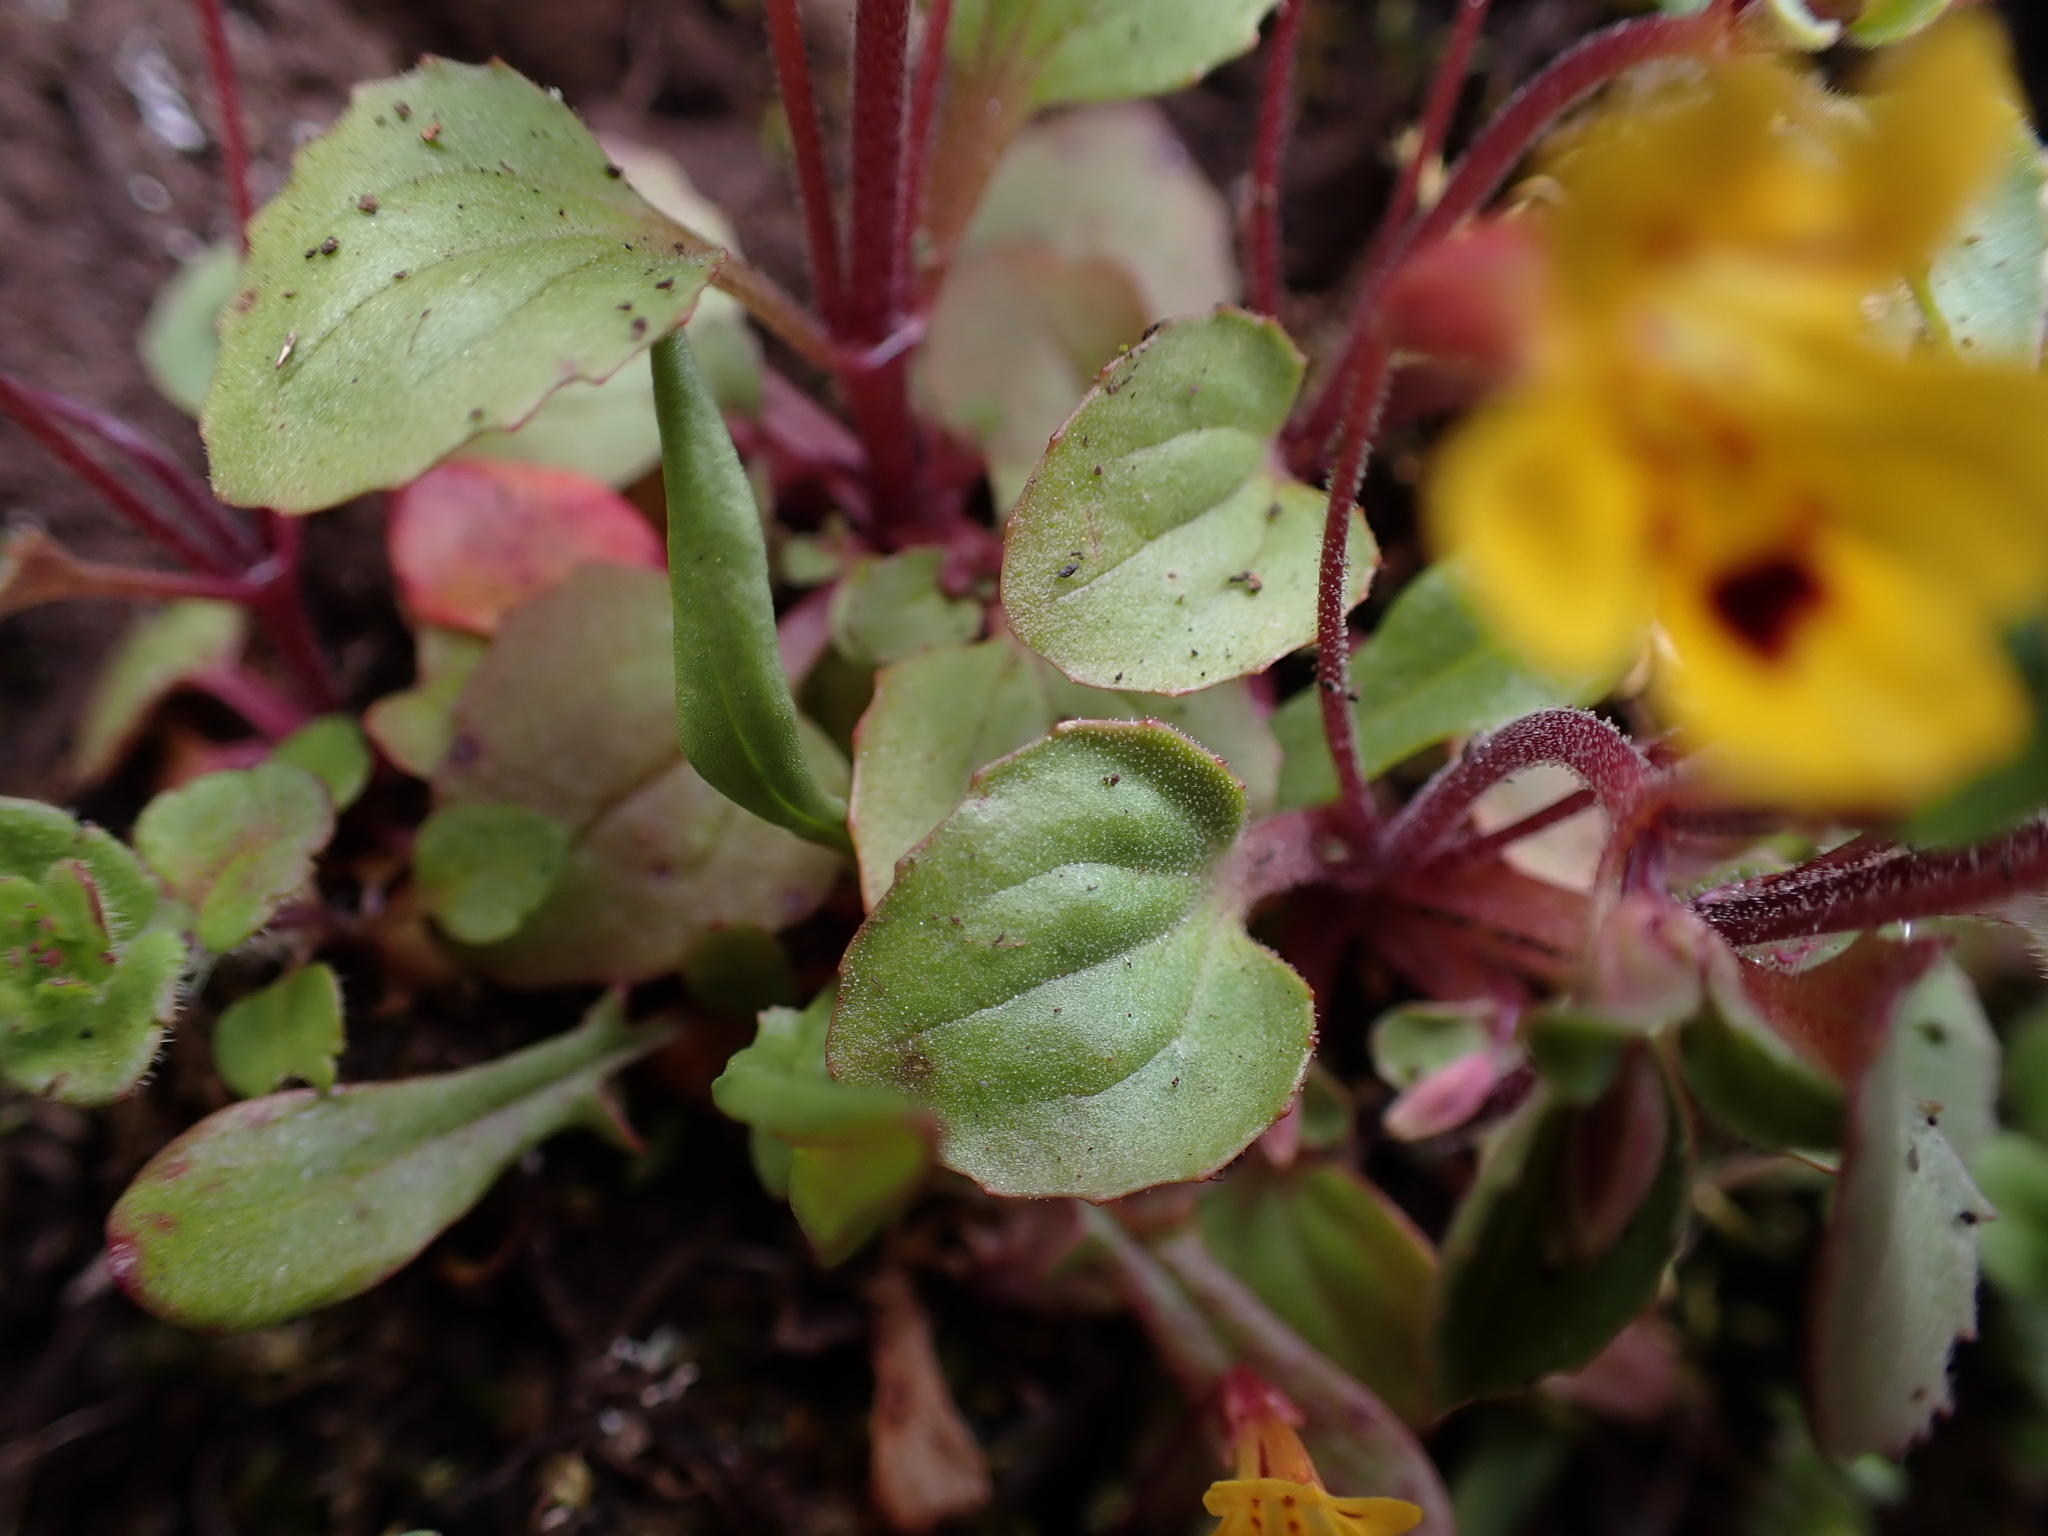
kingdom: Plantae
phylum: Tracheophyta
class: Magnoliopsida
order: Lamiales
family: Phrymaceae
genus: Erythranthe
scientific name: Erythranthe alsinoides
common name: Chickweed monkeyflower
